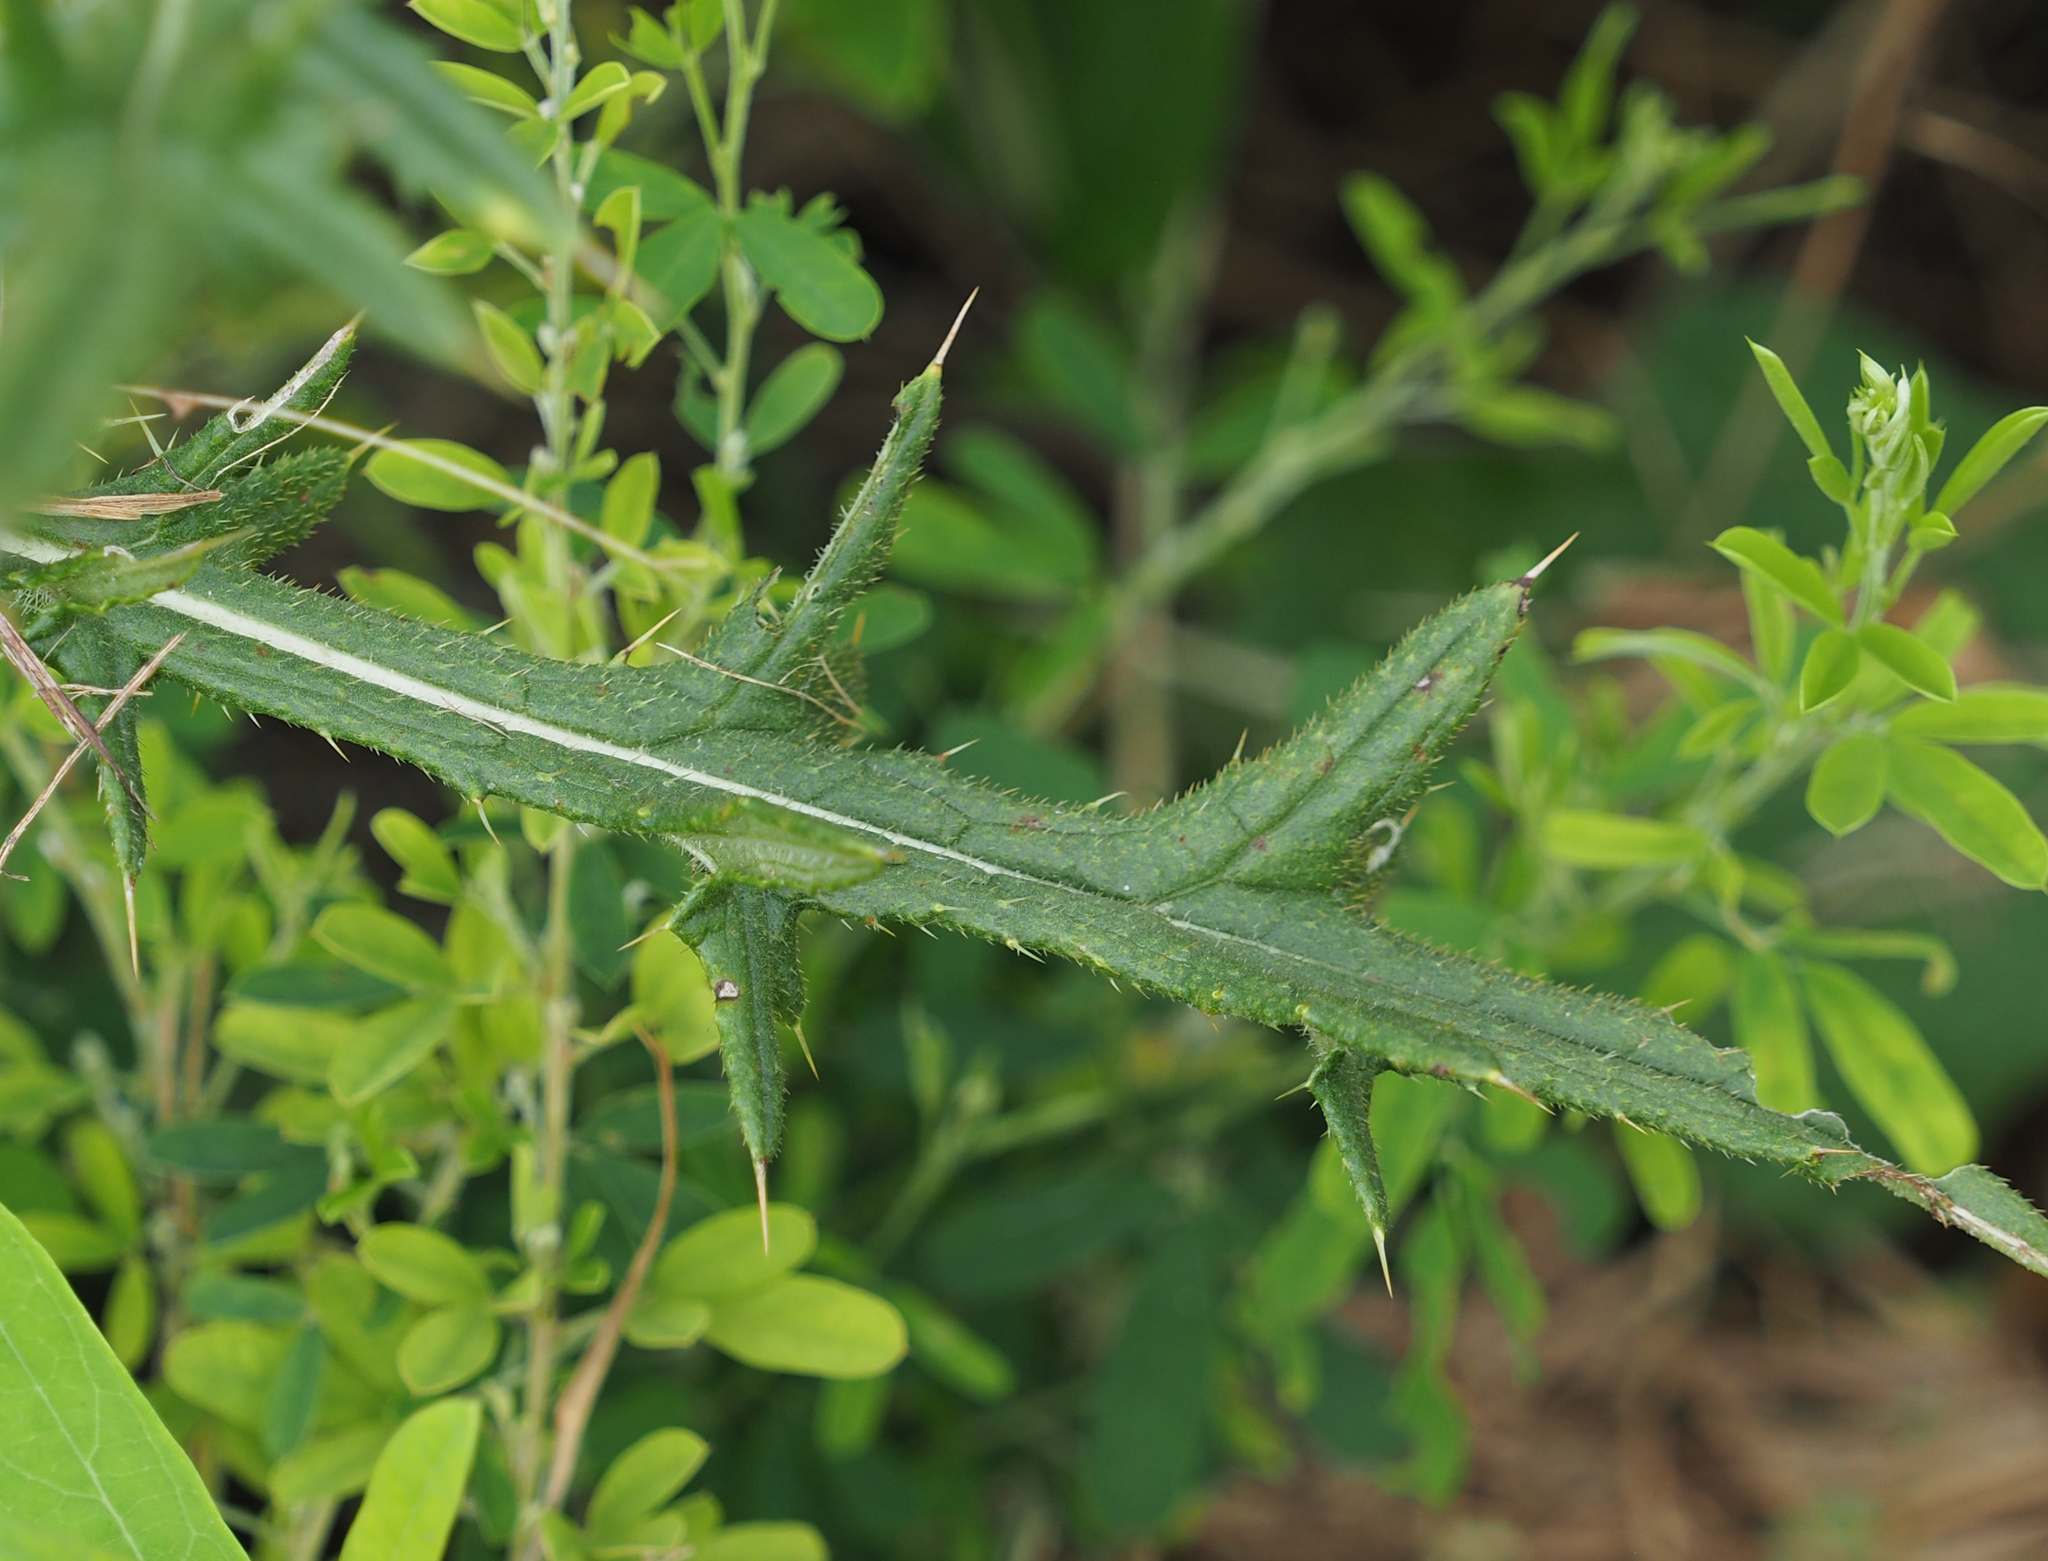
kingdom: Plantae
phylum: Tracheophyta
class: Magnoliopsida
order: Asterales
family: Asteraceae
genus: Cirsium
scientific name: Cirsium vulgare
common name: Bull thistle
